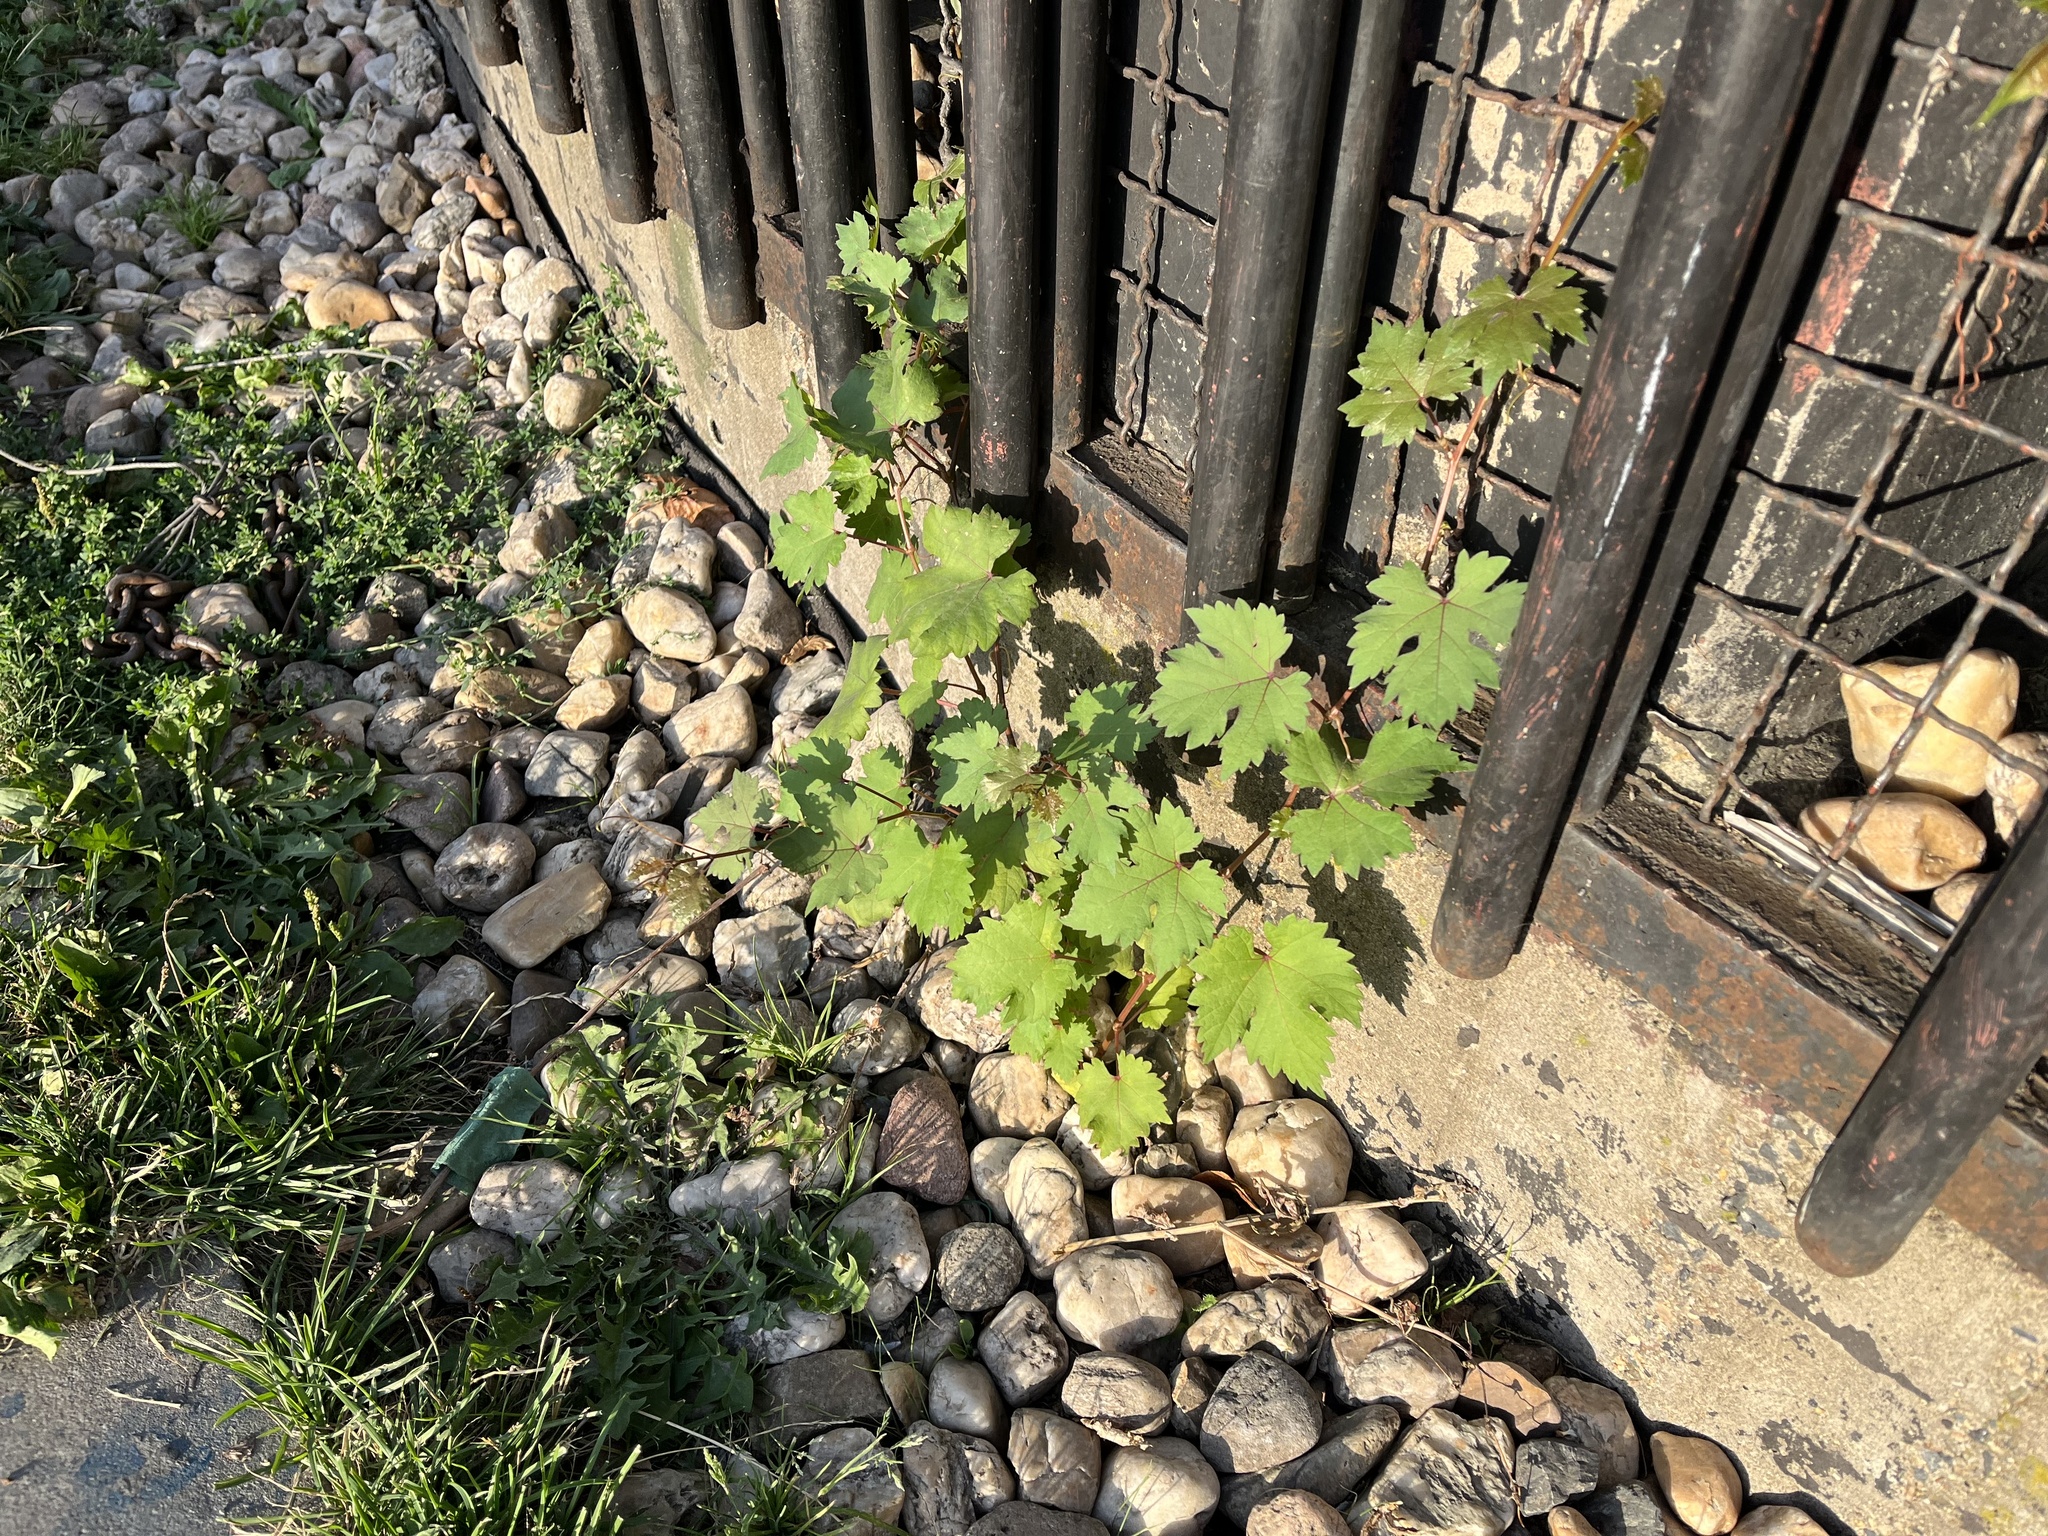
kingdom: Plantae
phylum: Tracheophyta
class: Magnoliopsida
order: Vitales
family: Vitaceae
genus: Vitis
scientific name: Vitis vinifera
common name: Grape-vine
